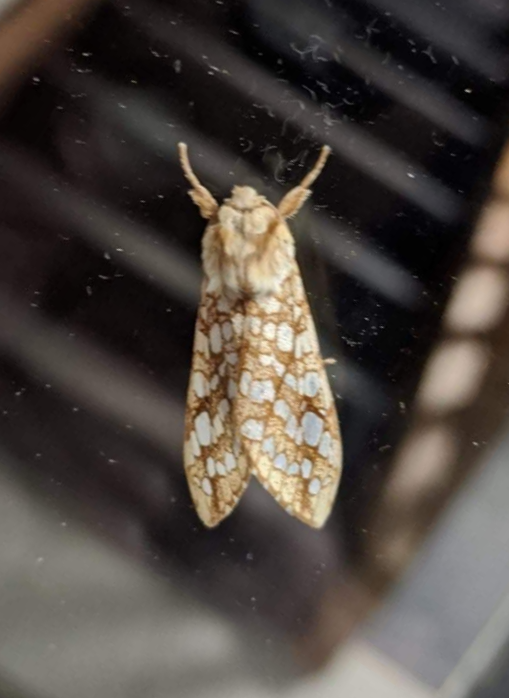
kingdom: Animalia
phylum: Arthropoda
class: Insecta
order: Lepidoptera
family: Erebidae
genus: Lophocampa
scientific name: Lophocampa caryae
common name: Hickory tussock moth
